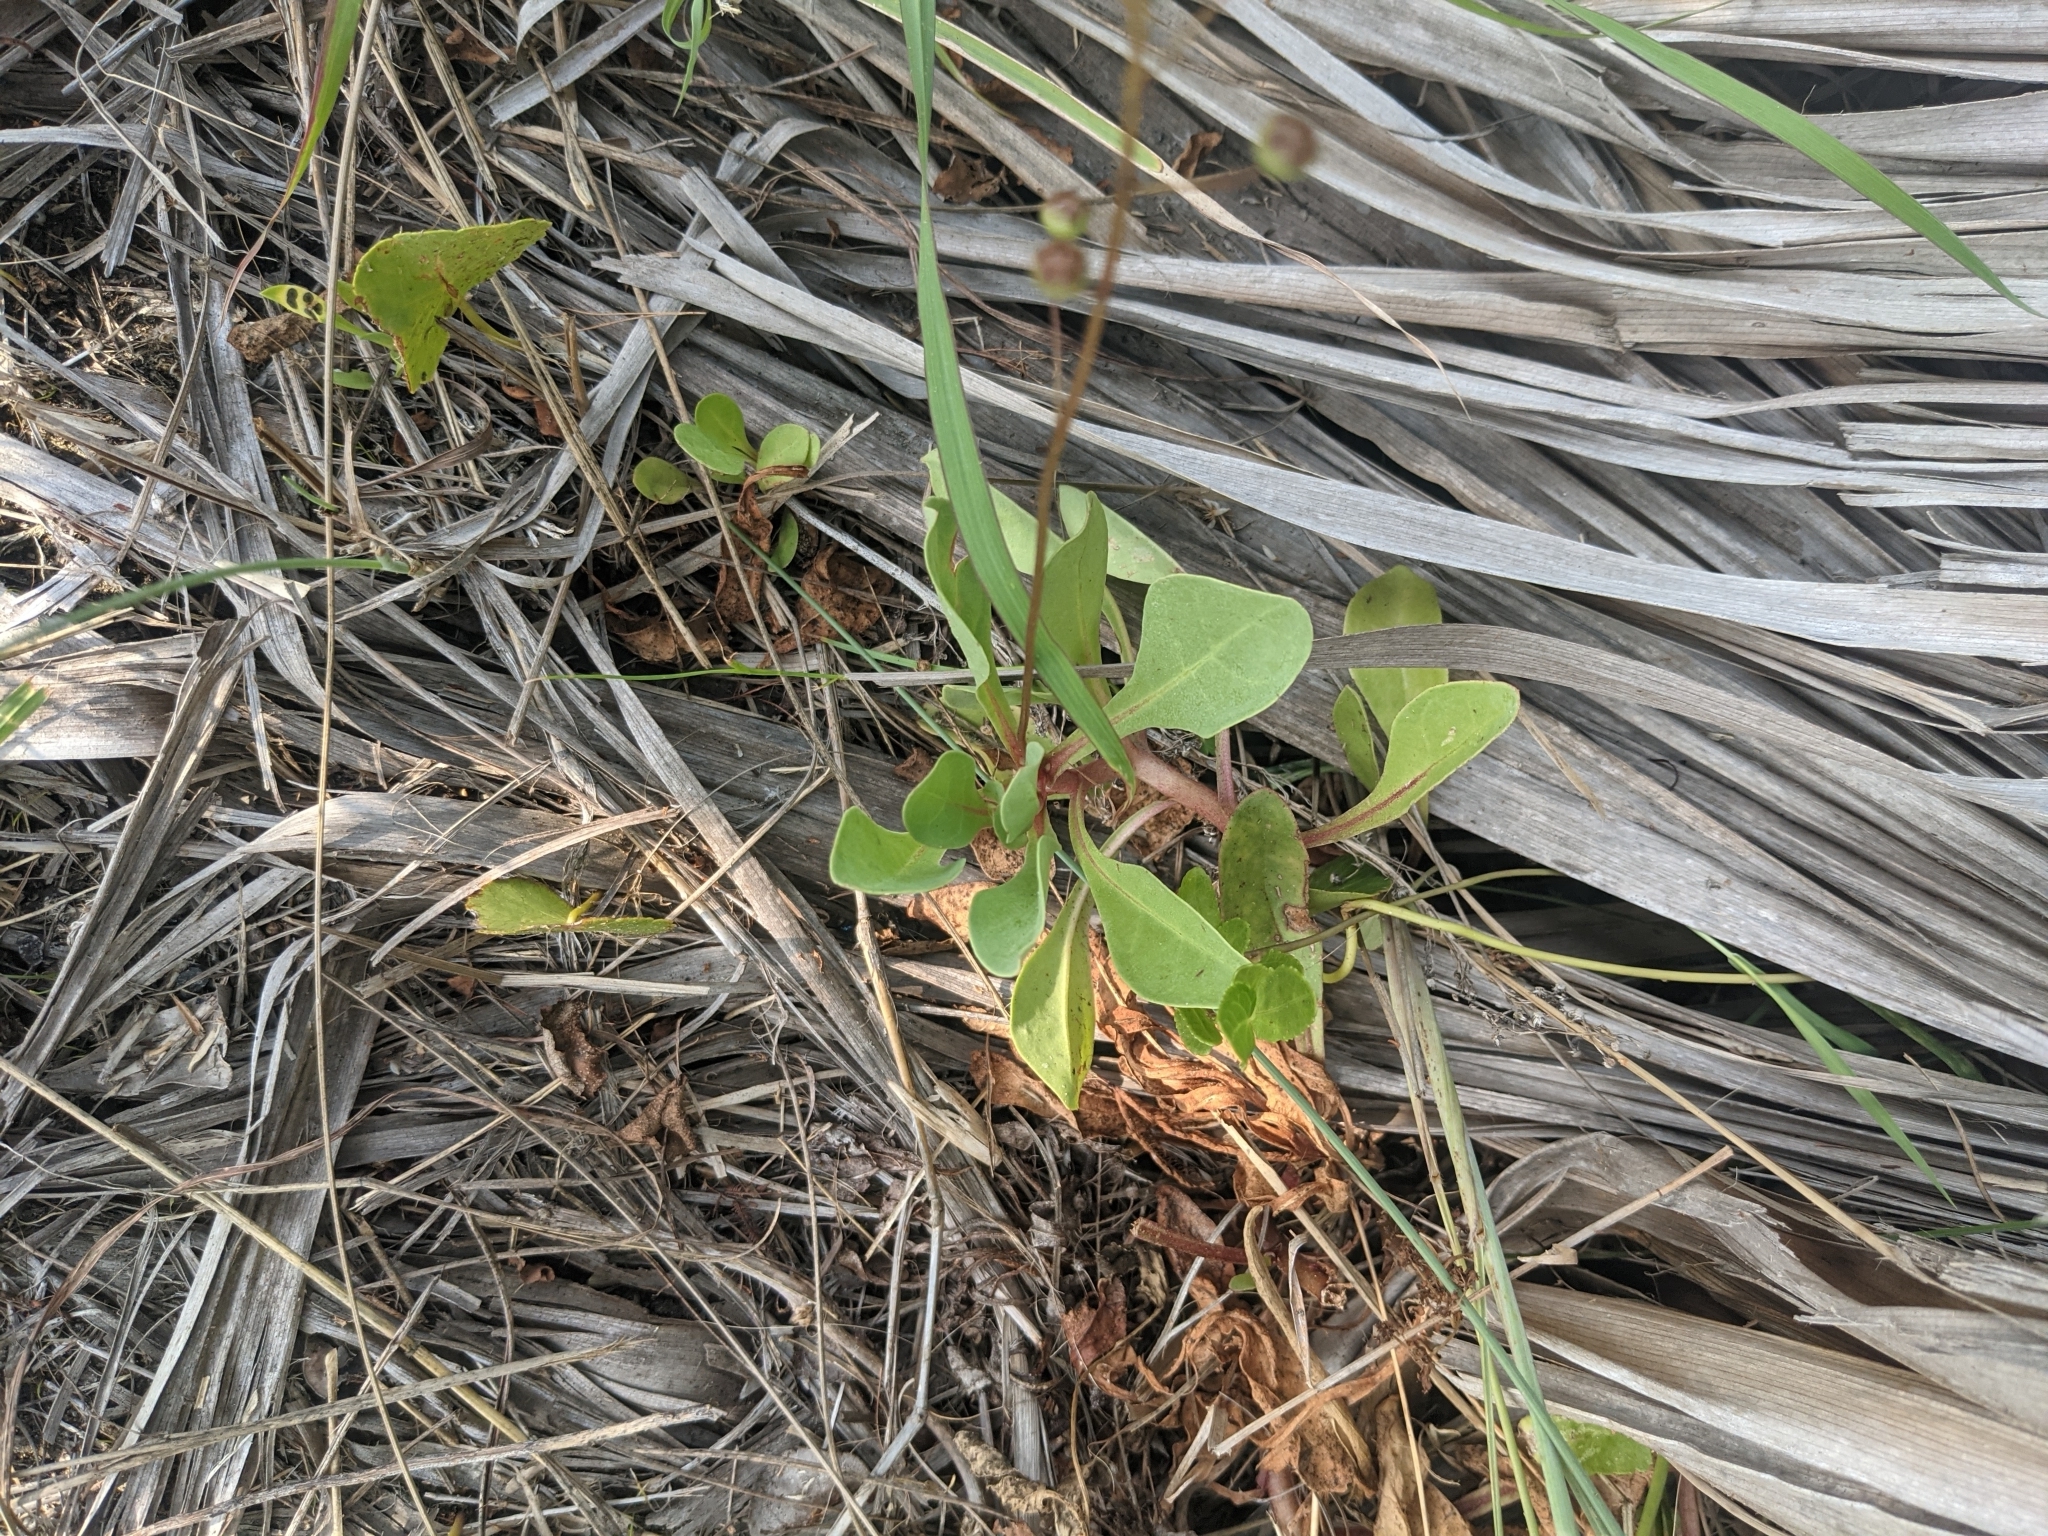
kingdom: Plantae
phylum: Tracheophyta
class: Magnoliopsida
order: Ericales
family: Primulaceae
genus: Samolus
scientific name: Samolus ebracteatus
